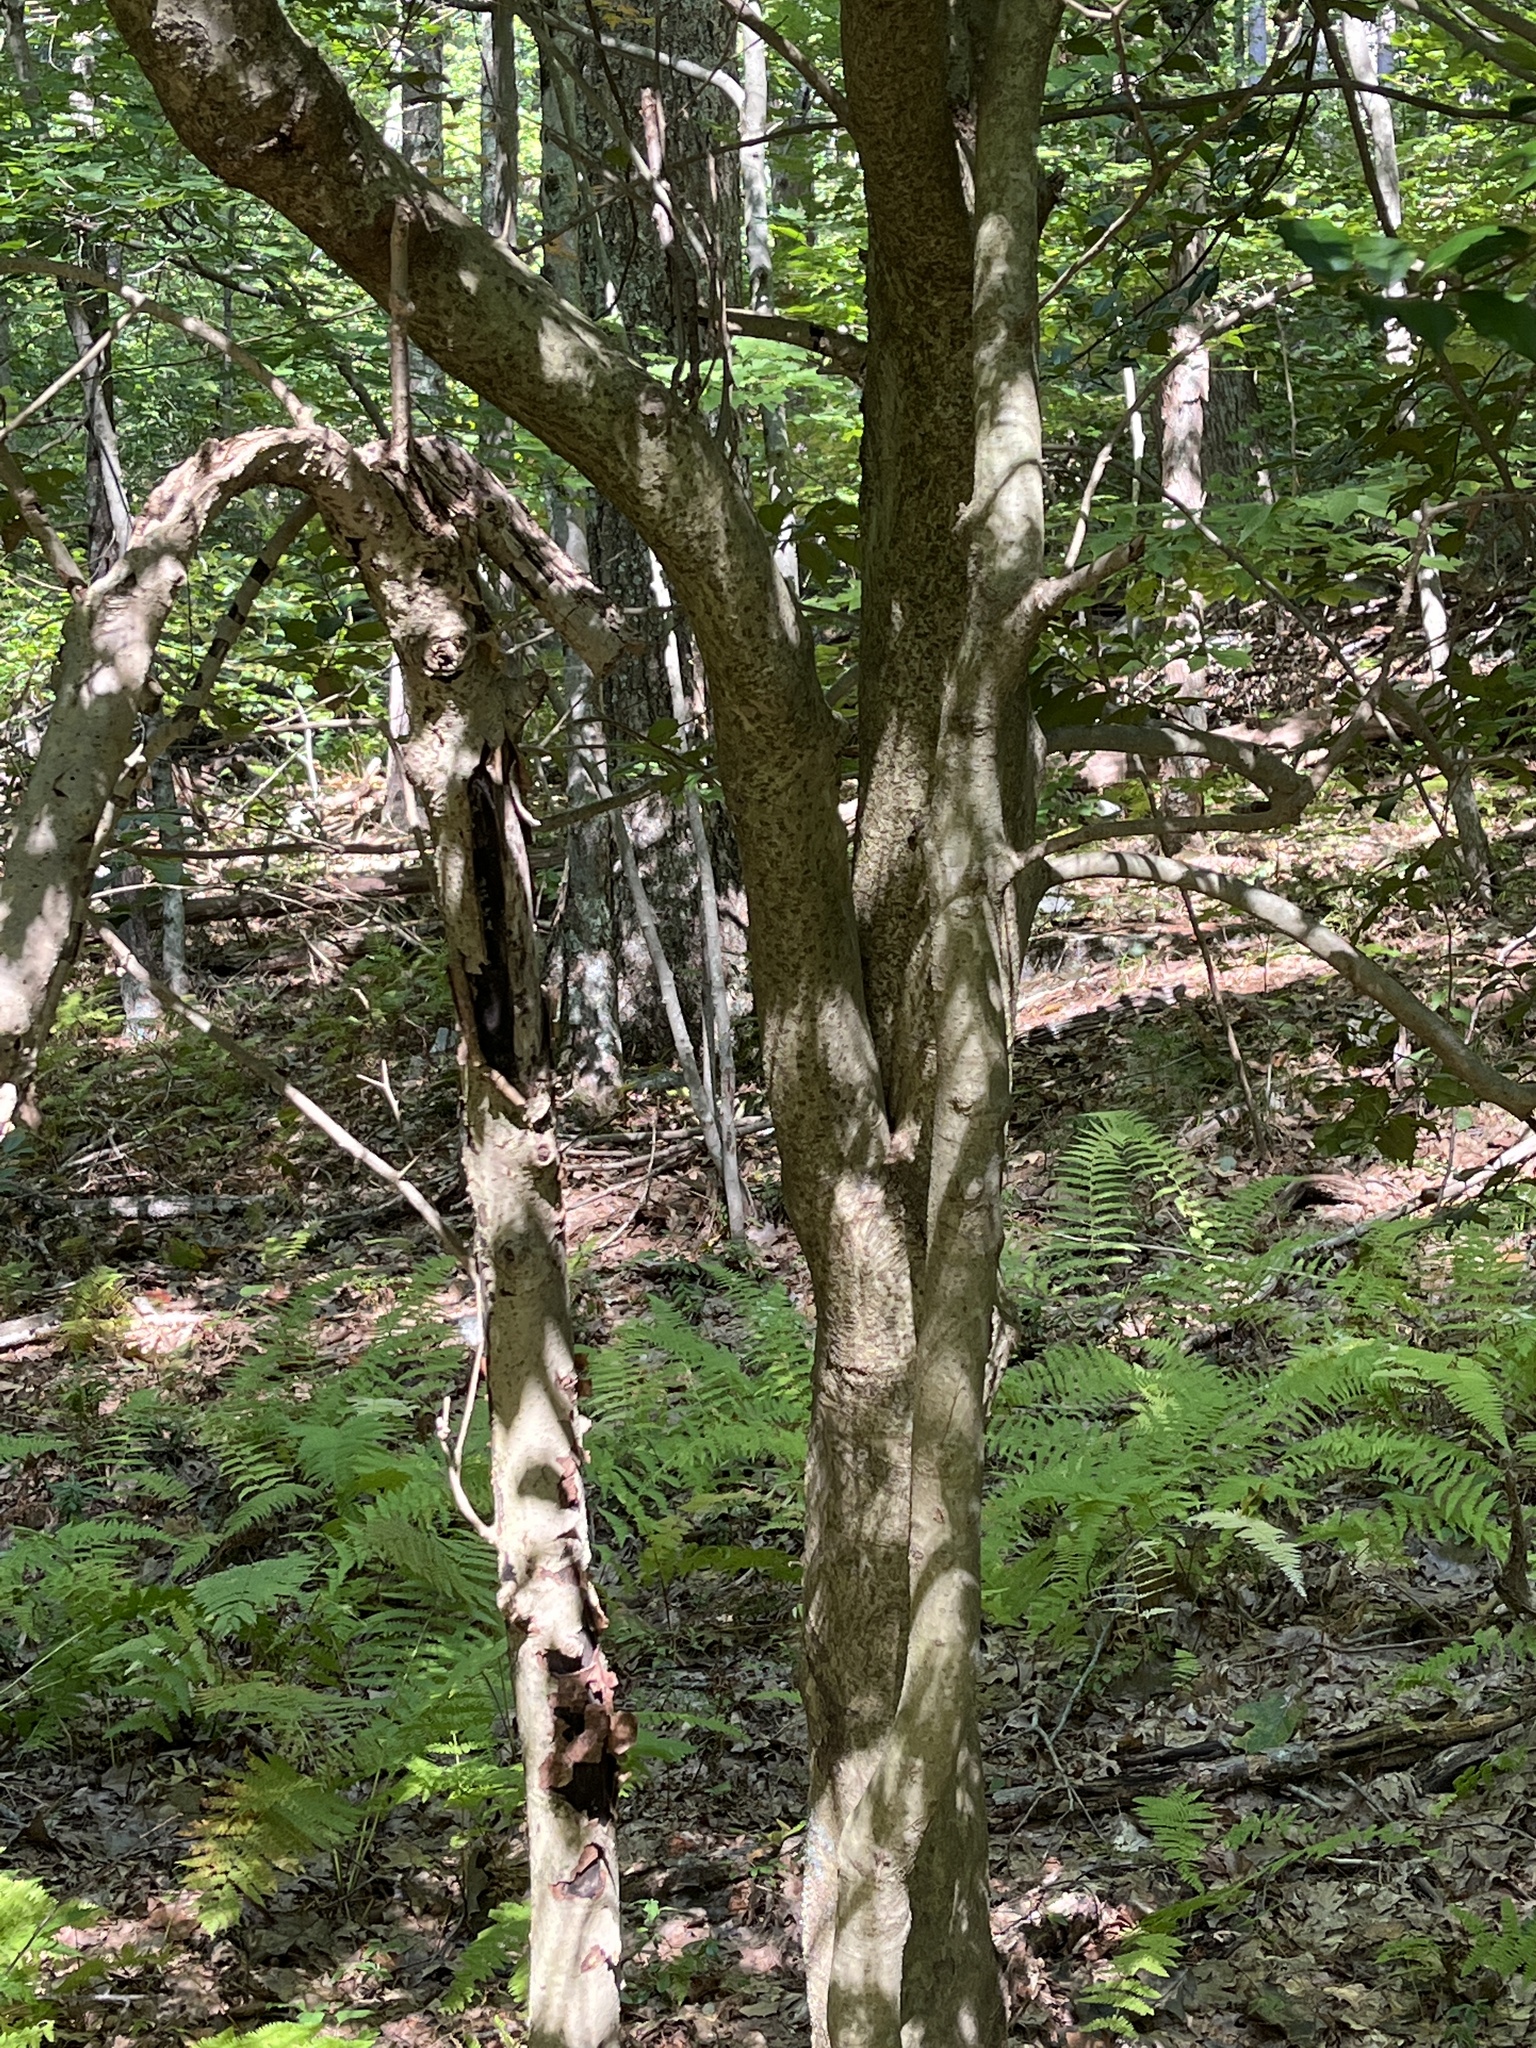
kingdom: Plantae
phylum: Tracheophyta
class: Magnoliopsida
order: Aquifoliales
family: Aquifoliaceae
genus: Ilex
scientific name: Ilex opaca
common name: American holly
